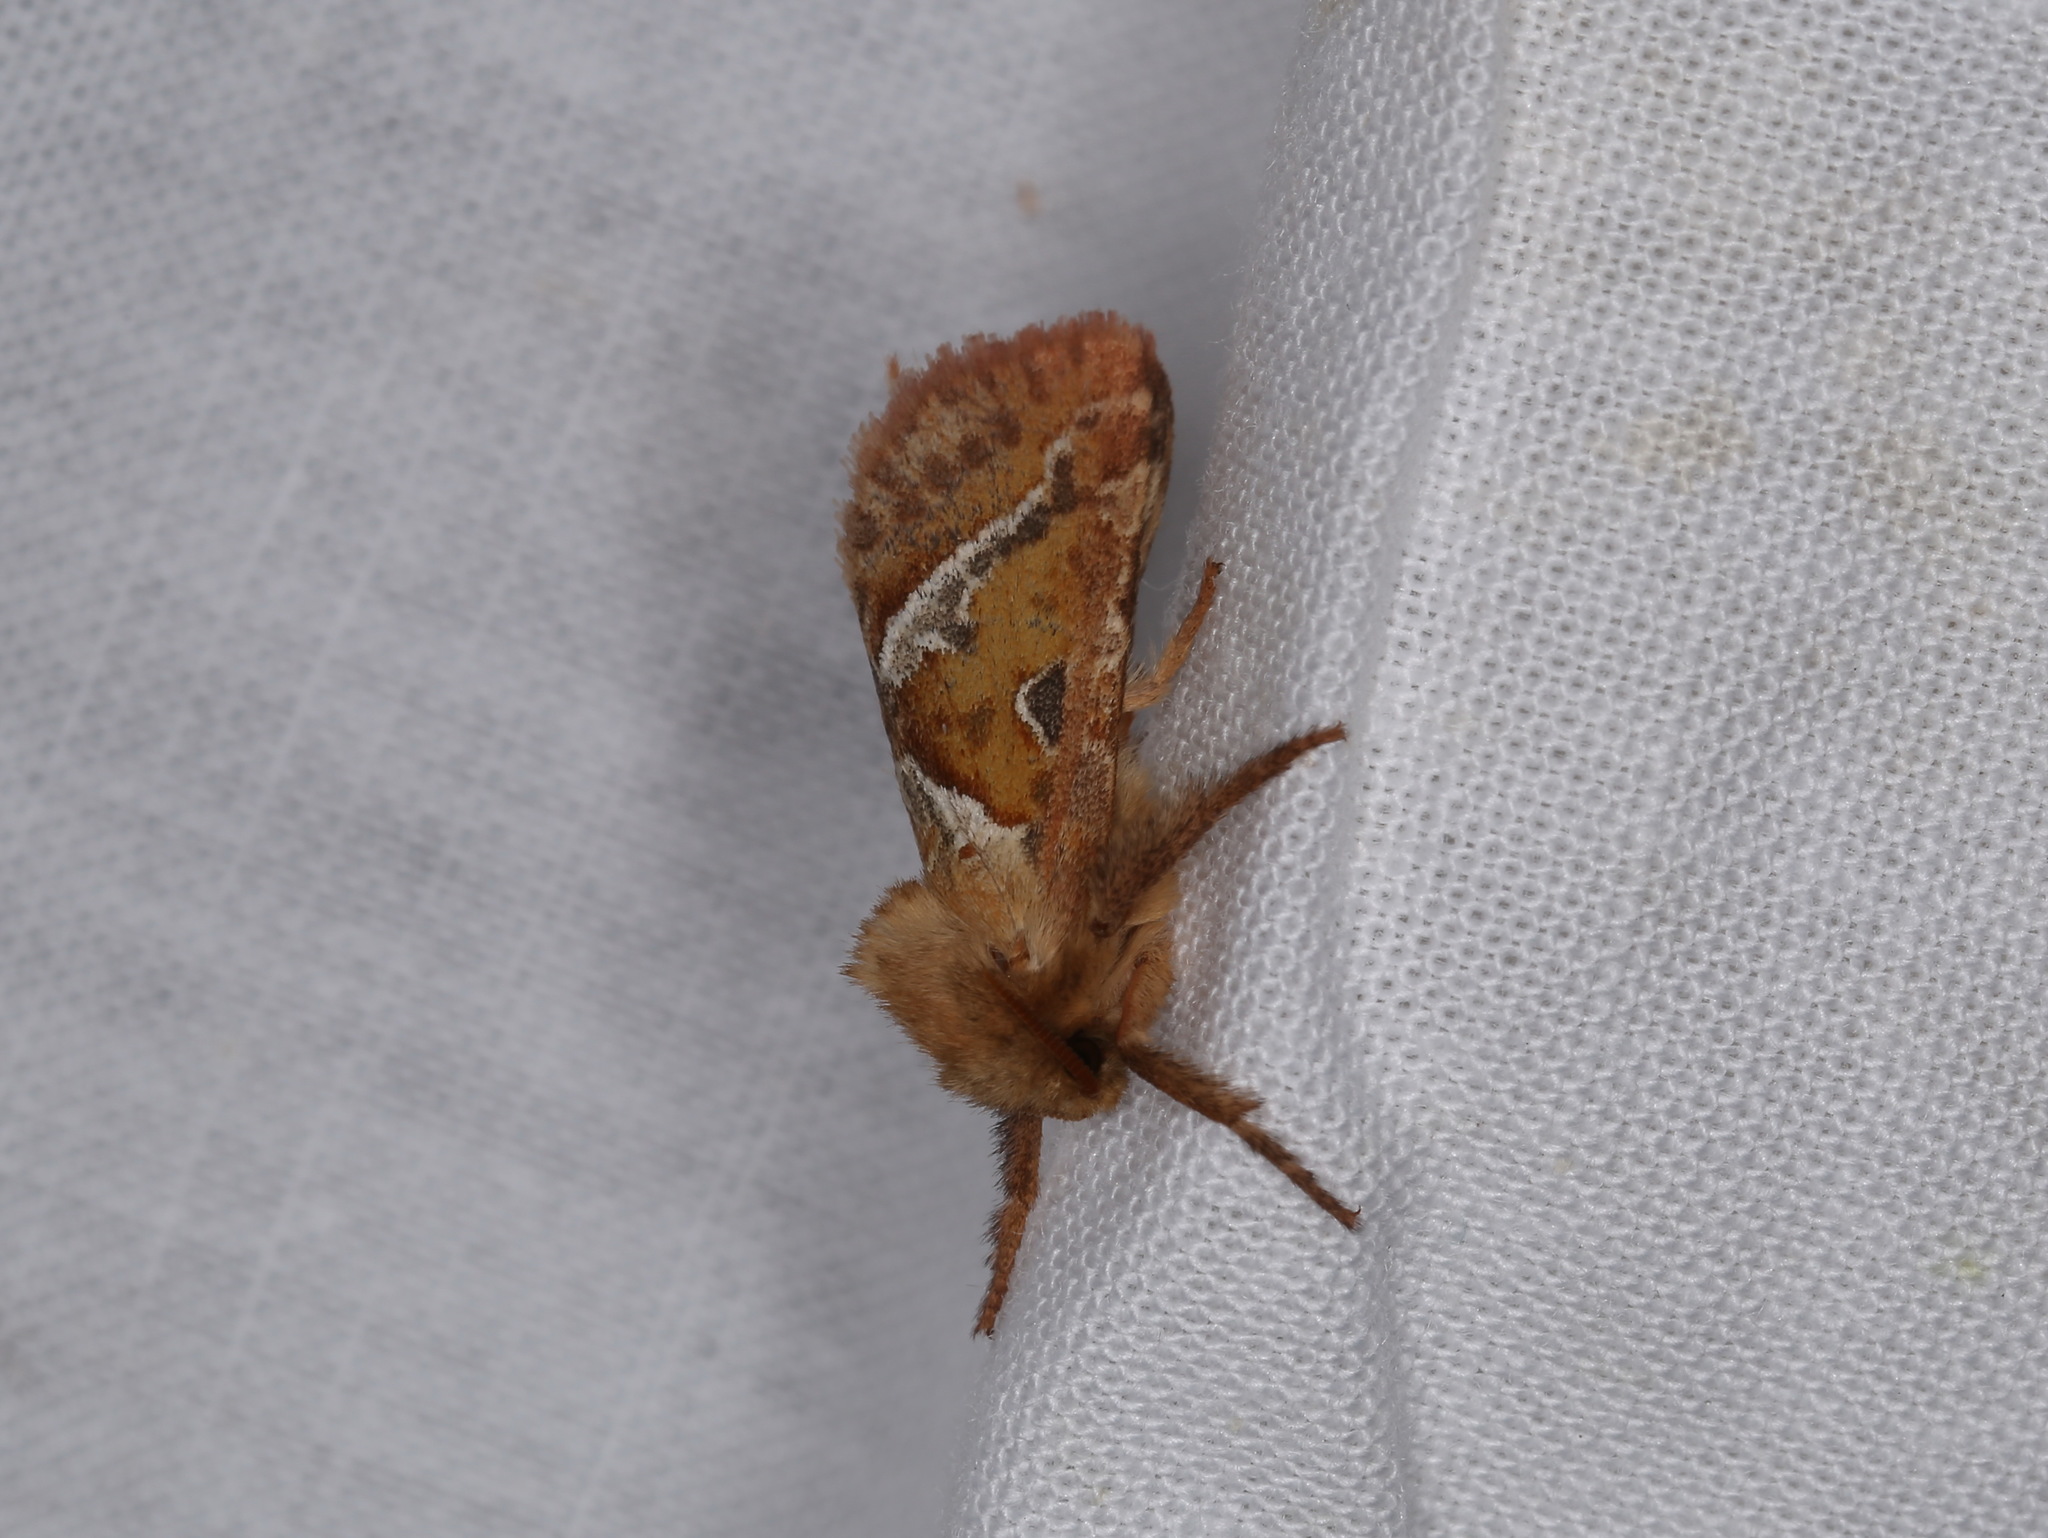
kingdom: Animalia
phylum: Arthropoda
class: Insecta
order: Lepidoptera
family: Hepialidae
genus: Triodia
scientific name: Triodia sylvina
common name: Orange swift
